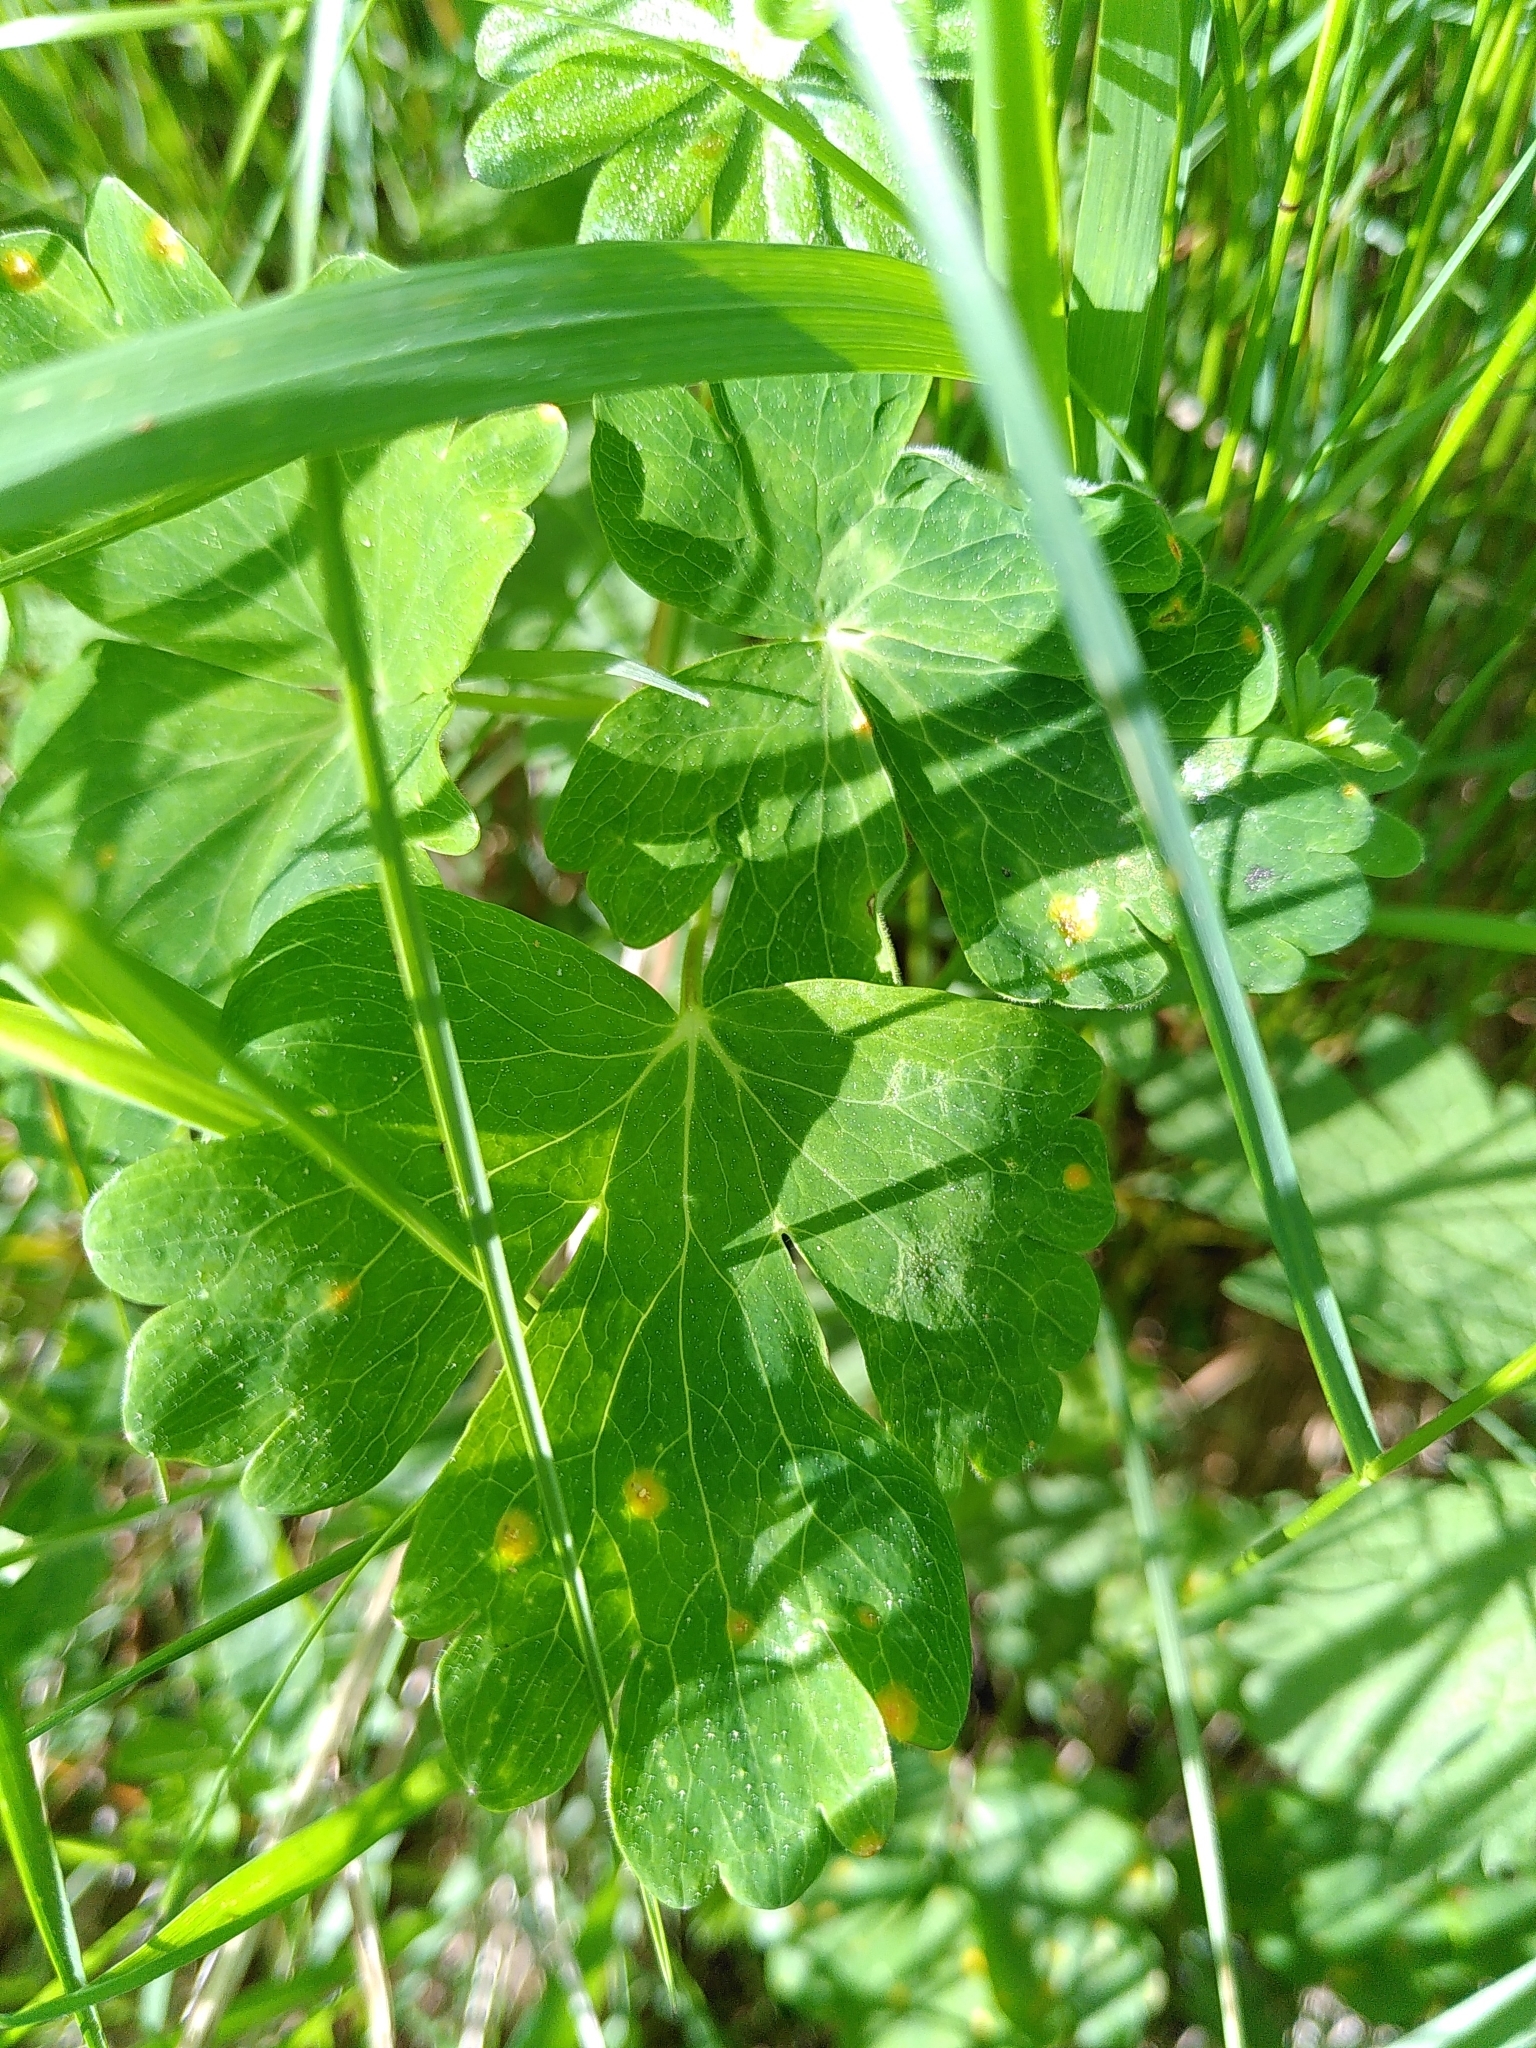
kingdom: Plantae
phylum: Tracheophyta
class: Magnoliopsida
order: Ranunculales
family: Ranunculaceae
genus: Aquilegia
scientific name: Aquilegia vulgaris
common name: Columbine
